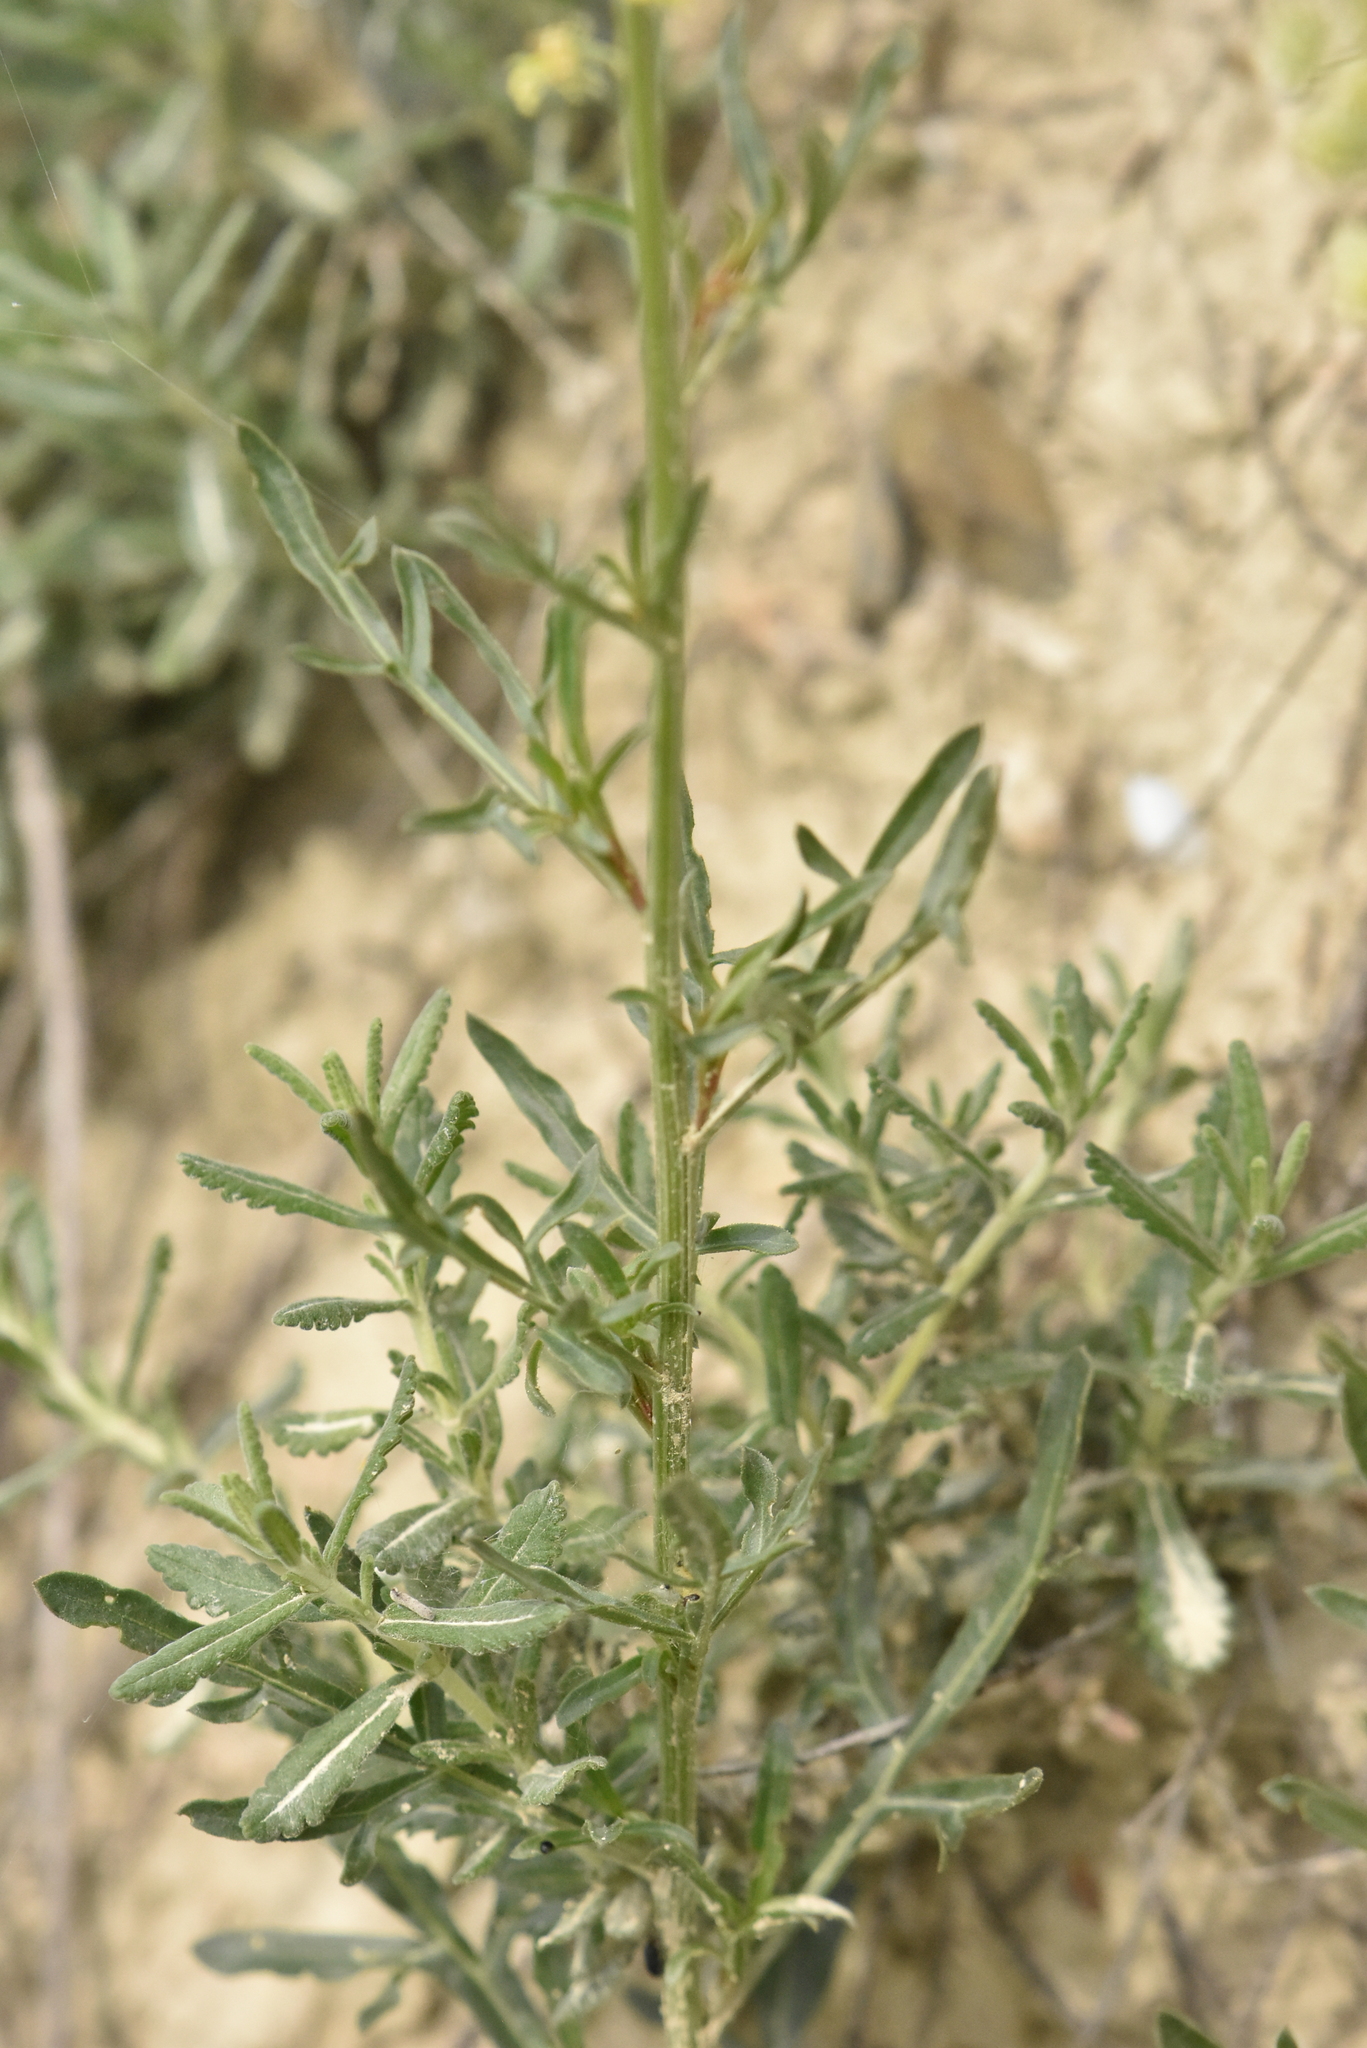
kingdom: Plantae
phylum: Tracheophyta
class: Magnoliopsida
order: Brassicales
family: Resedaceae
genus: Reseda
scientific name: Reseda lutea
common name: Wild mignonette
